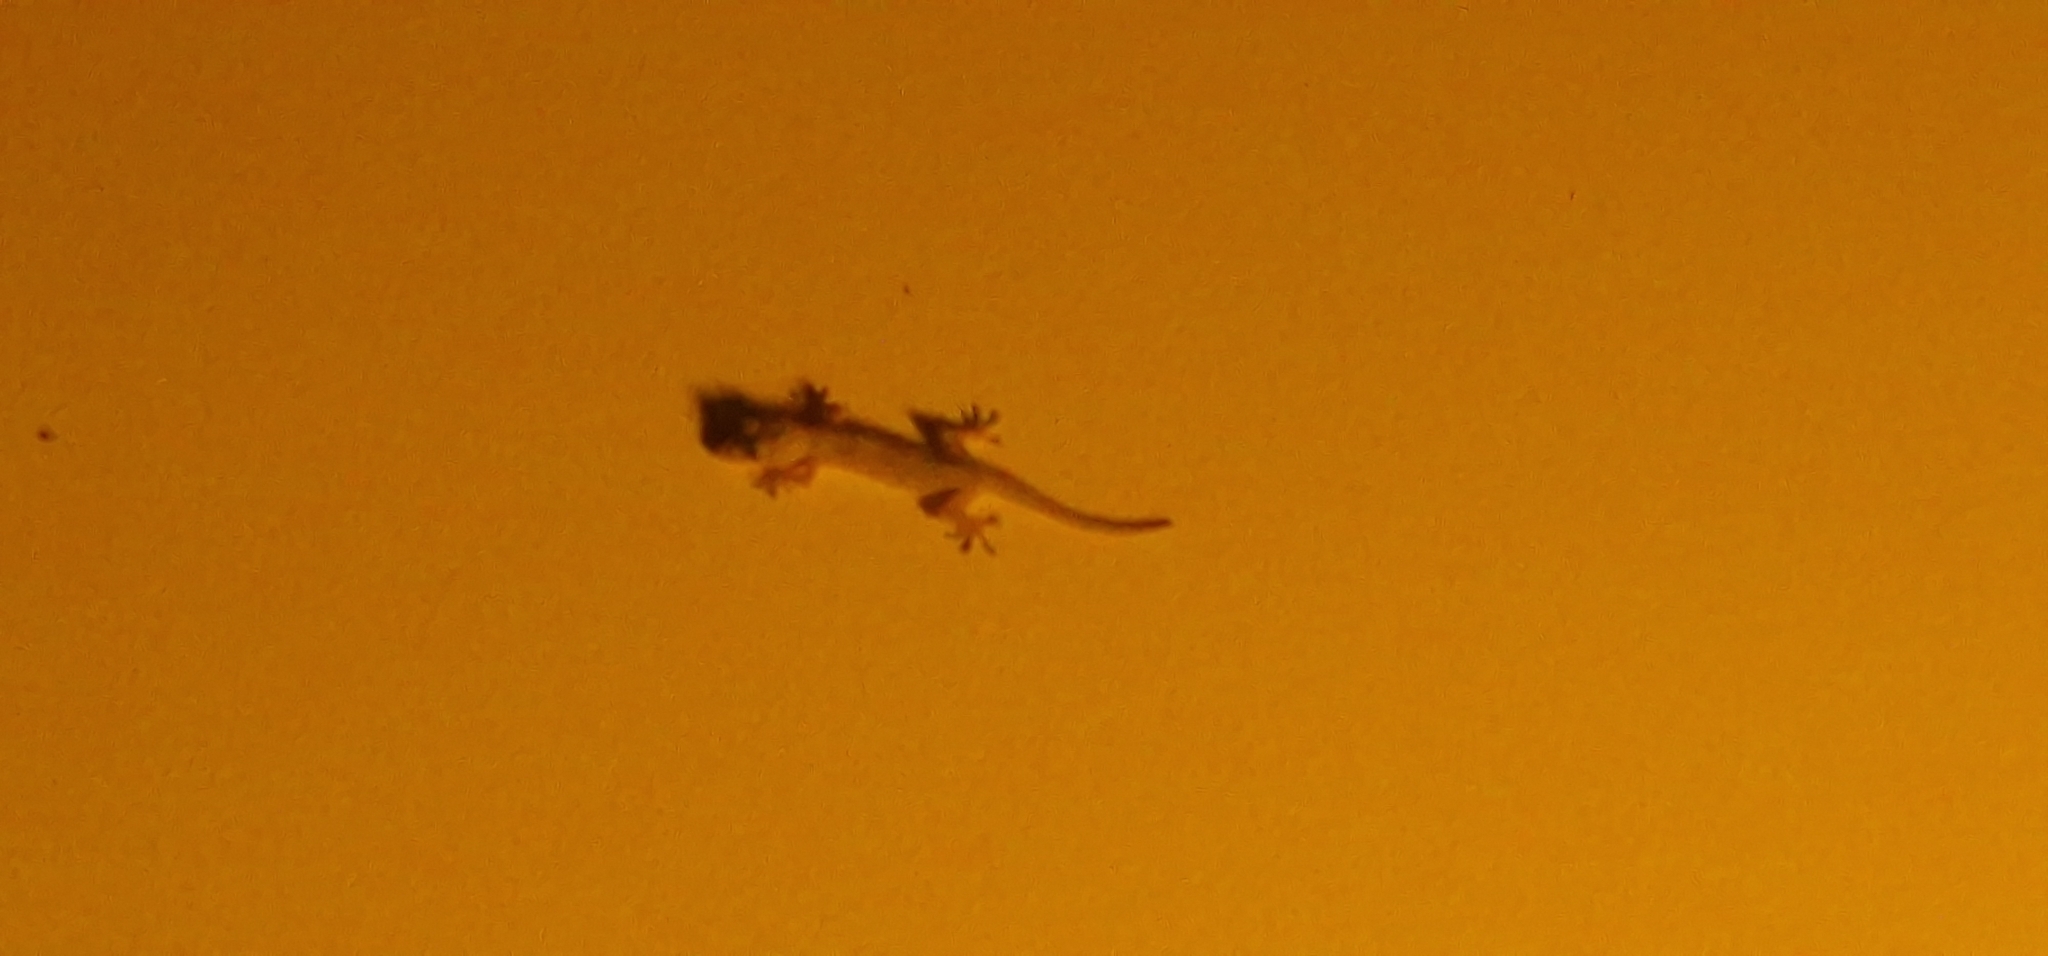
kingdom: Animalia
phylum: Chordata
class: Squamata
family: Phyllodactylidae
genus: Tarentola
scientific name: Tarentola mauritanica
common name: Moorish gecko
